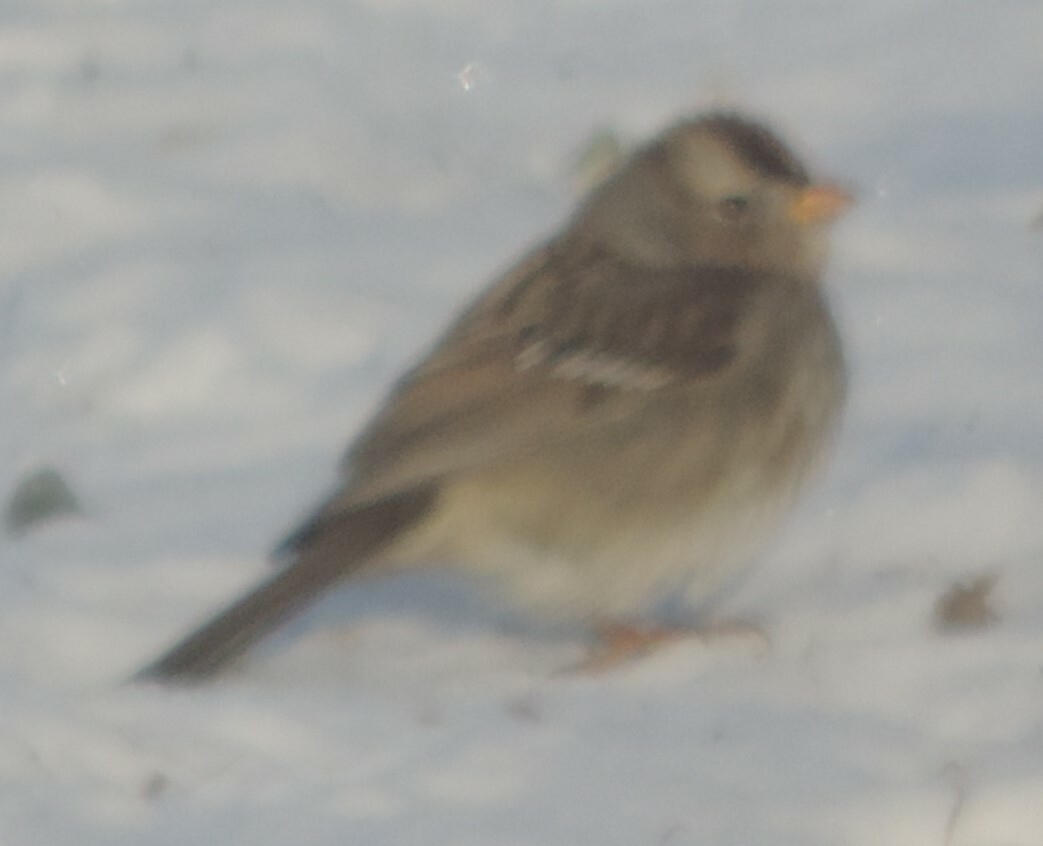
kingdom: Animalia
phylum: Chordata
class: Aves
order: Passeriformes
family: Passerellidae
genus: Zonotrichia
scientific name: Zonotrichia leucophrys
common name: White-crowned sparrow
